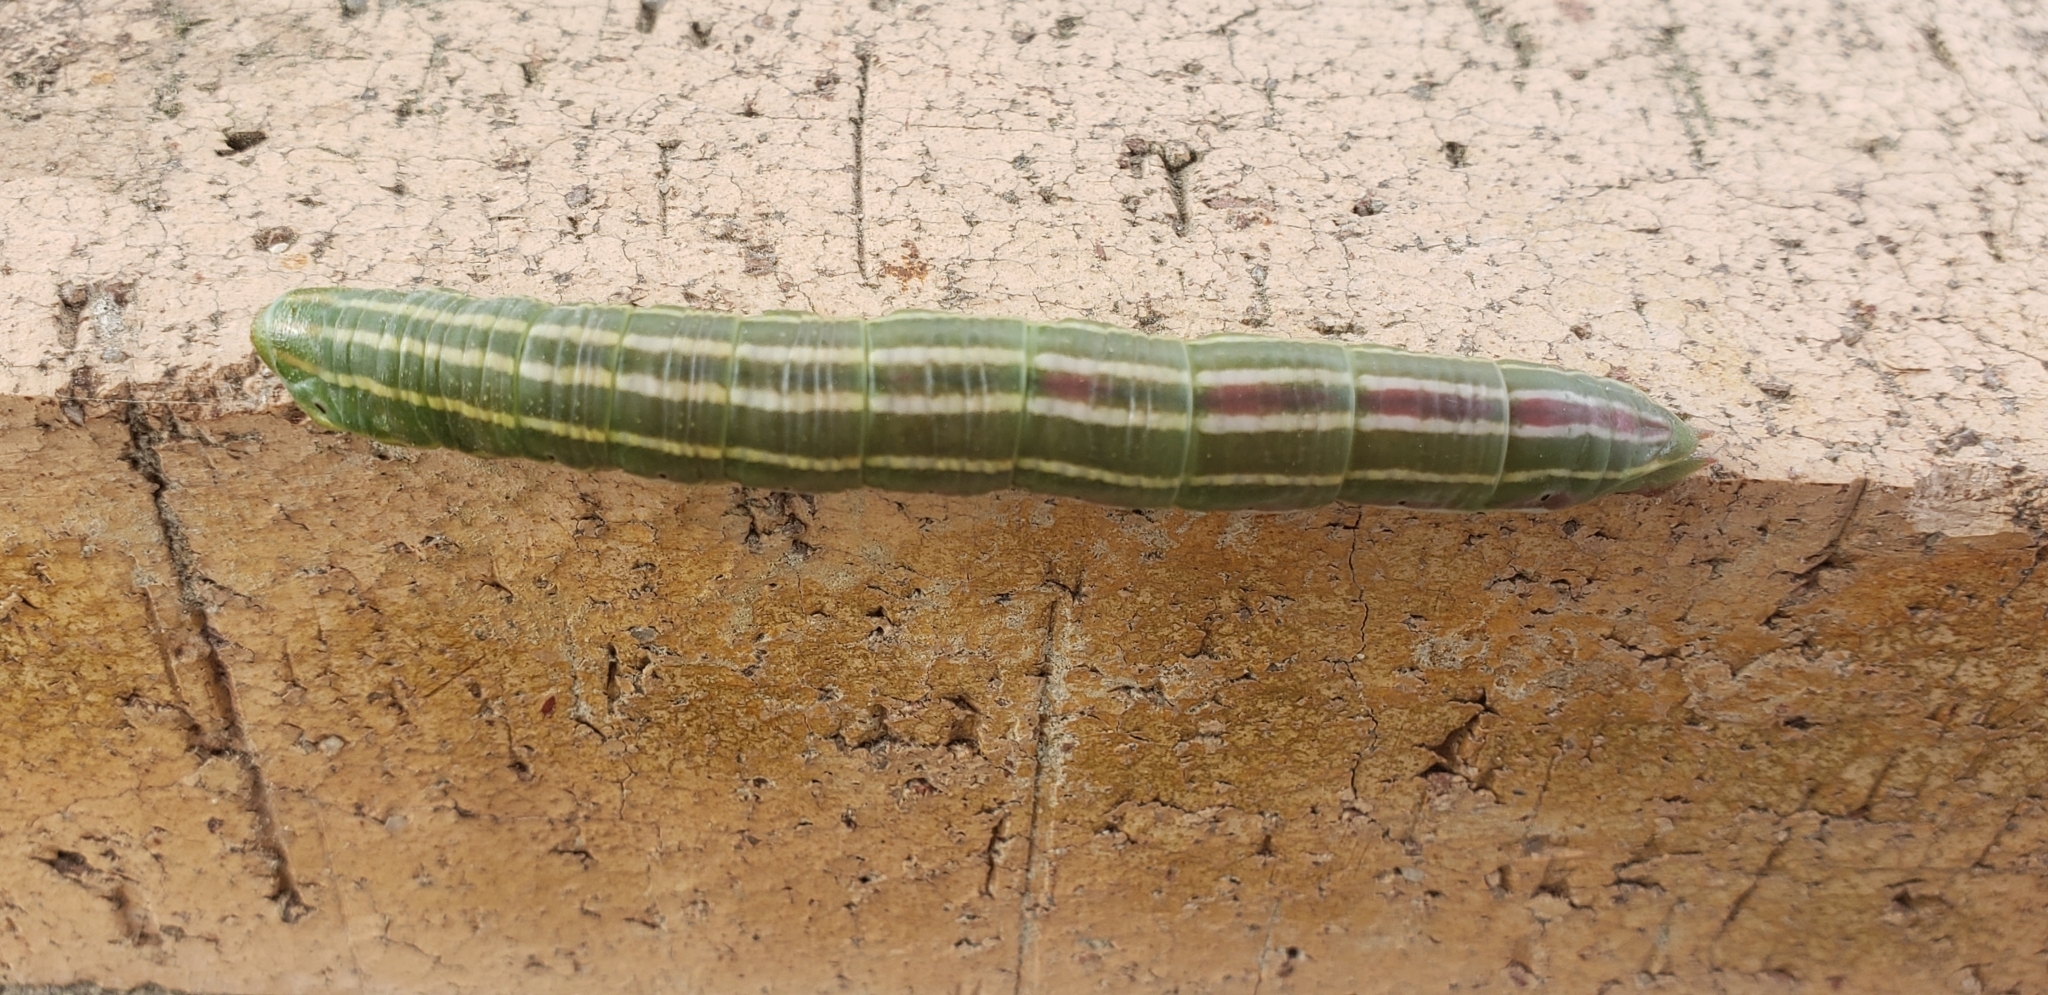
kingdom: Animalia
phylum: Arthropoda
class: Insecta
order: Lepidoptera
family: Sphingidae
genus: Lapara
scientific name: Lapara coniferarum
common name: Southern pine sphinx
